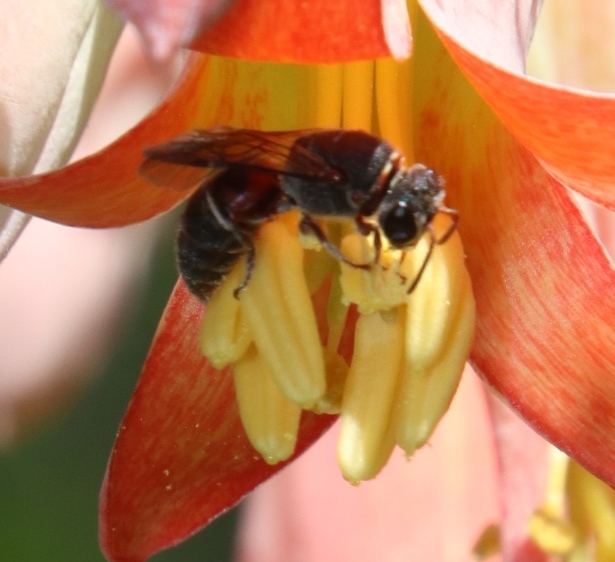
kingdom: Plantae
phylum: Tracheophyta
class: Magnoliopsida
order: Saxifragales
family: Crassulaceae
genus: Cotyledon
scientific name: Cotyledon orbiculata
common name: Pig's ear
